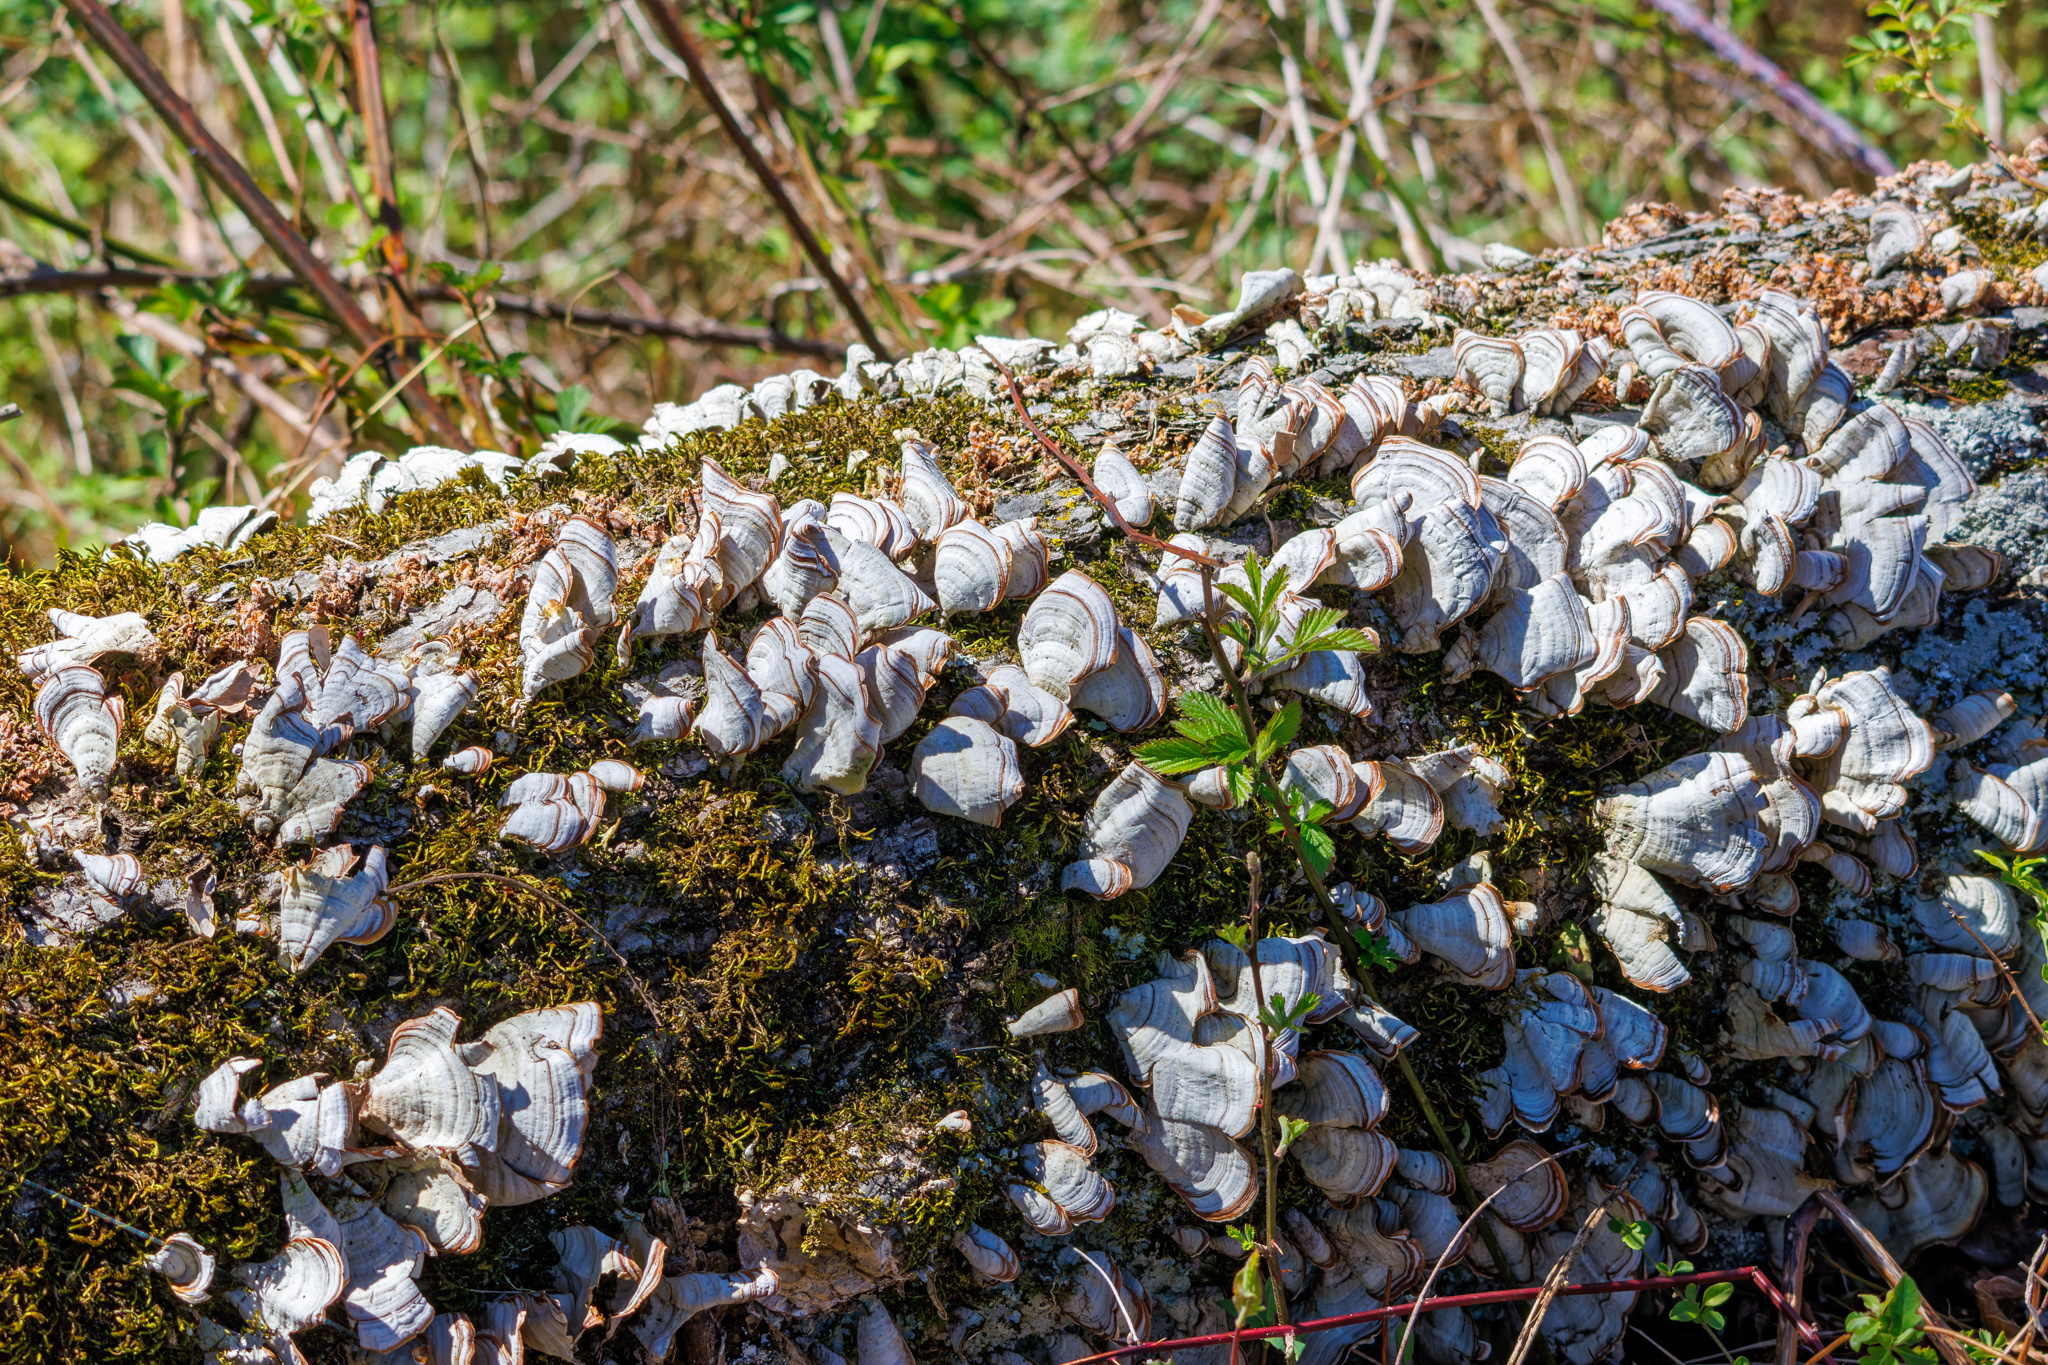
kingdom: Fungi
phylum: Basidiomycota
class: Agaricomycetes
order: Russulales
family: Stereaceae
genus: Stereum
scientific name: Stereum lobatum
